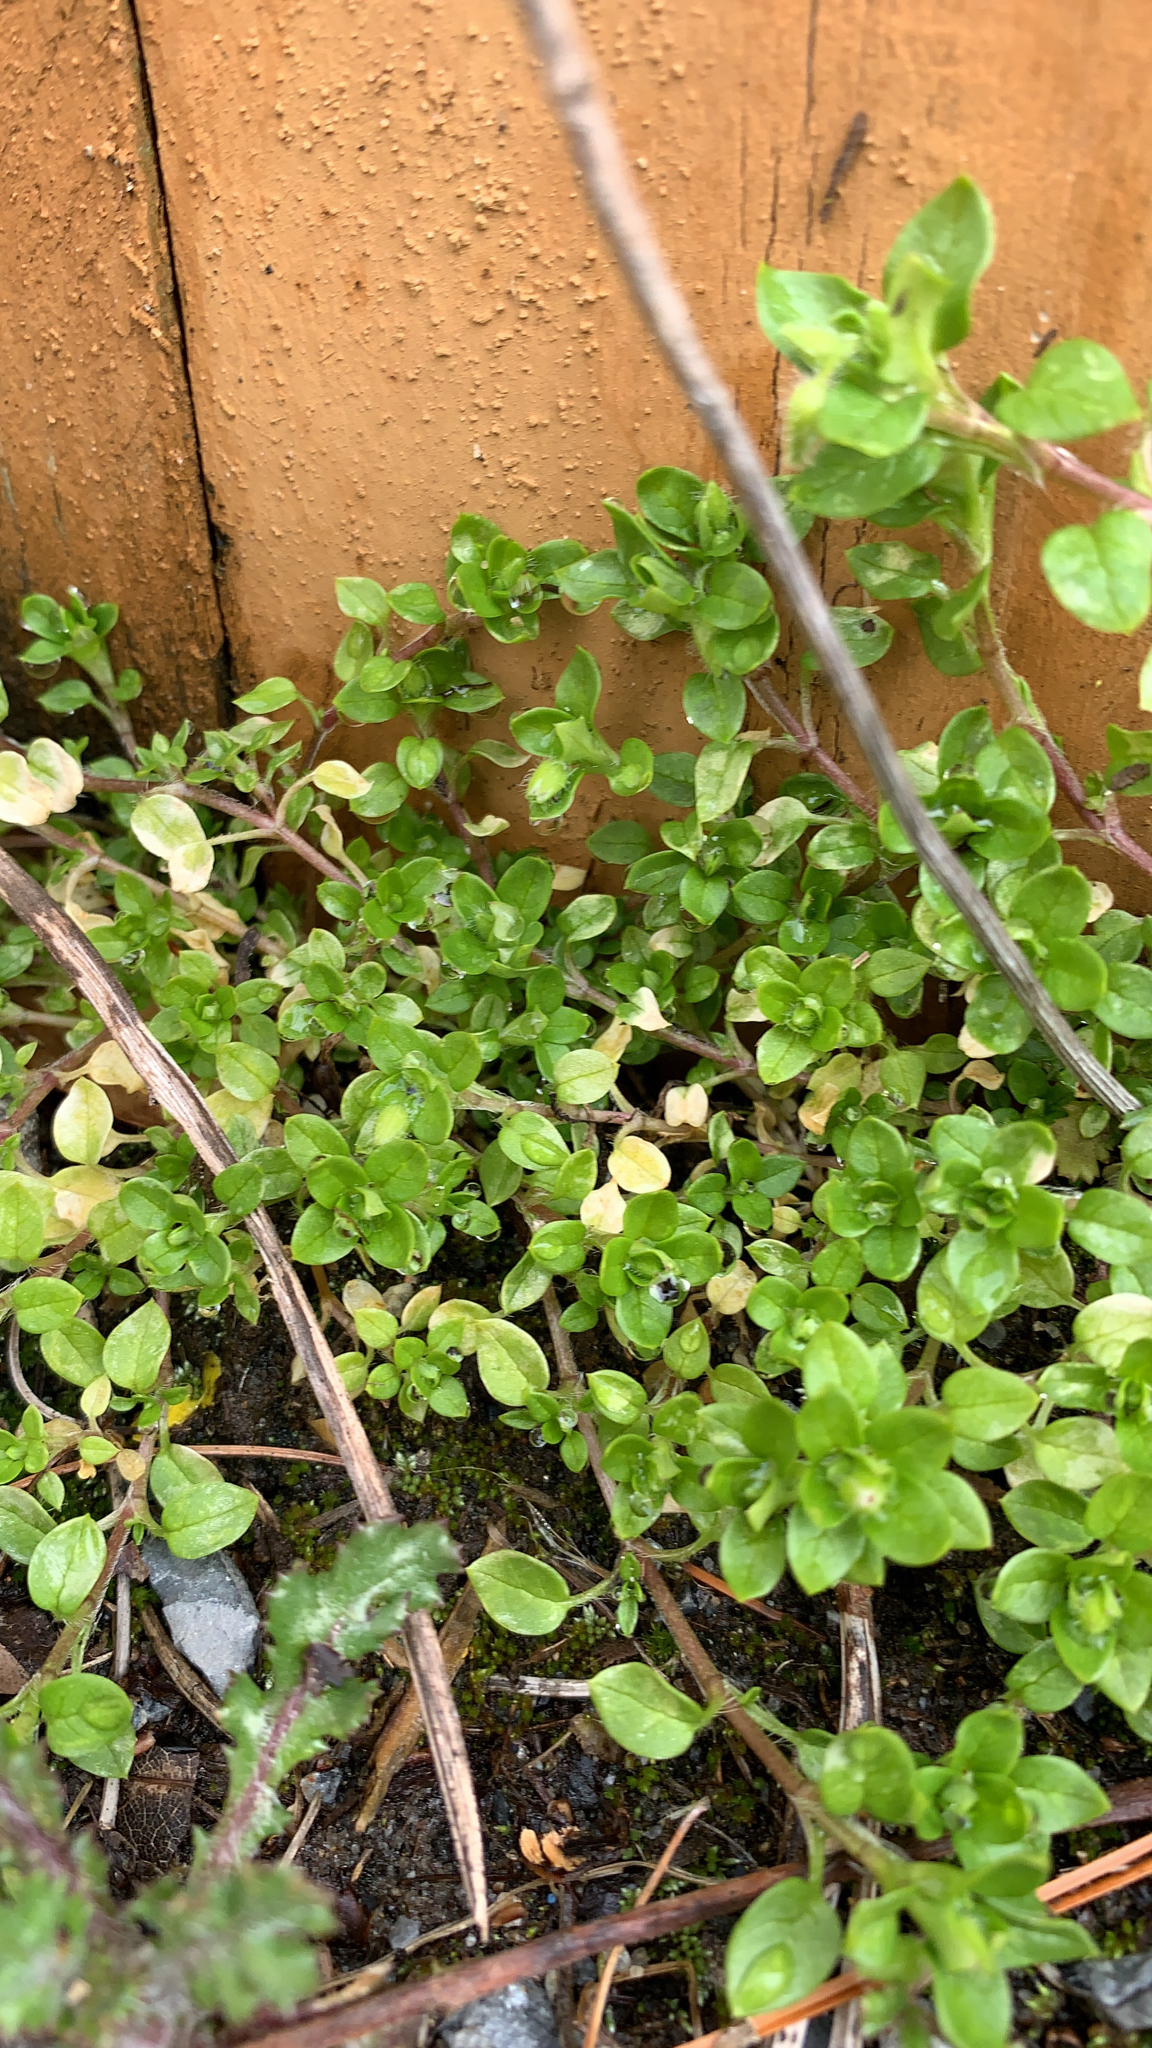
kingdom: Plantae
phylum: Tracheophyta
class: Magnoliopsida
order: Caryophyllales
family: Caryophyllaceae
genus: Stellaria
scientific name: Stellaria media
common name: Common chickweed
